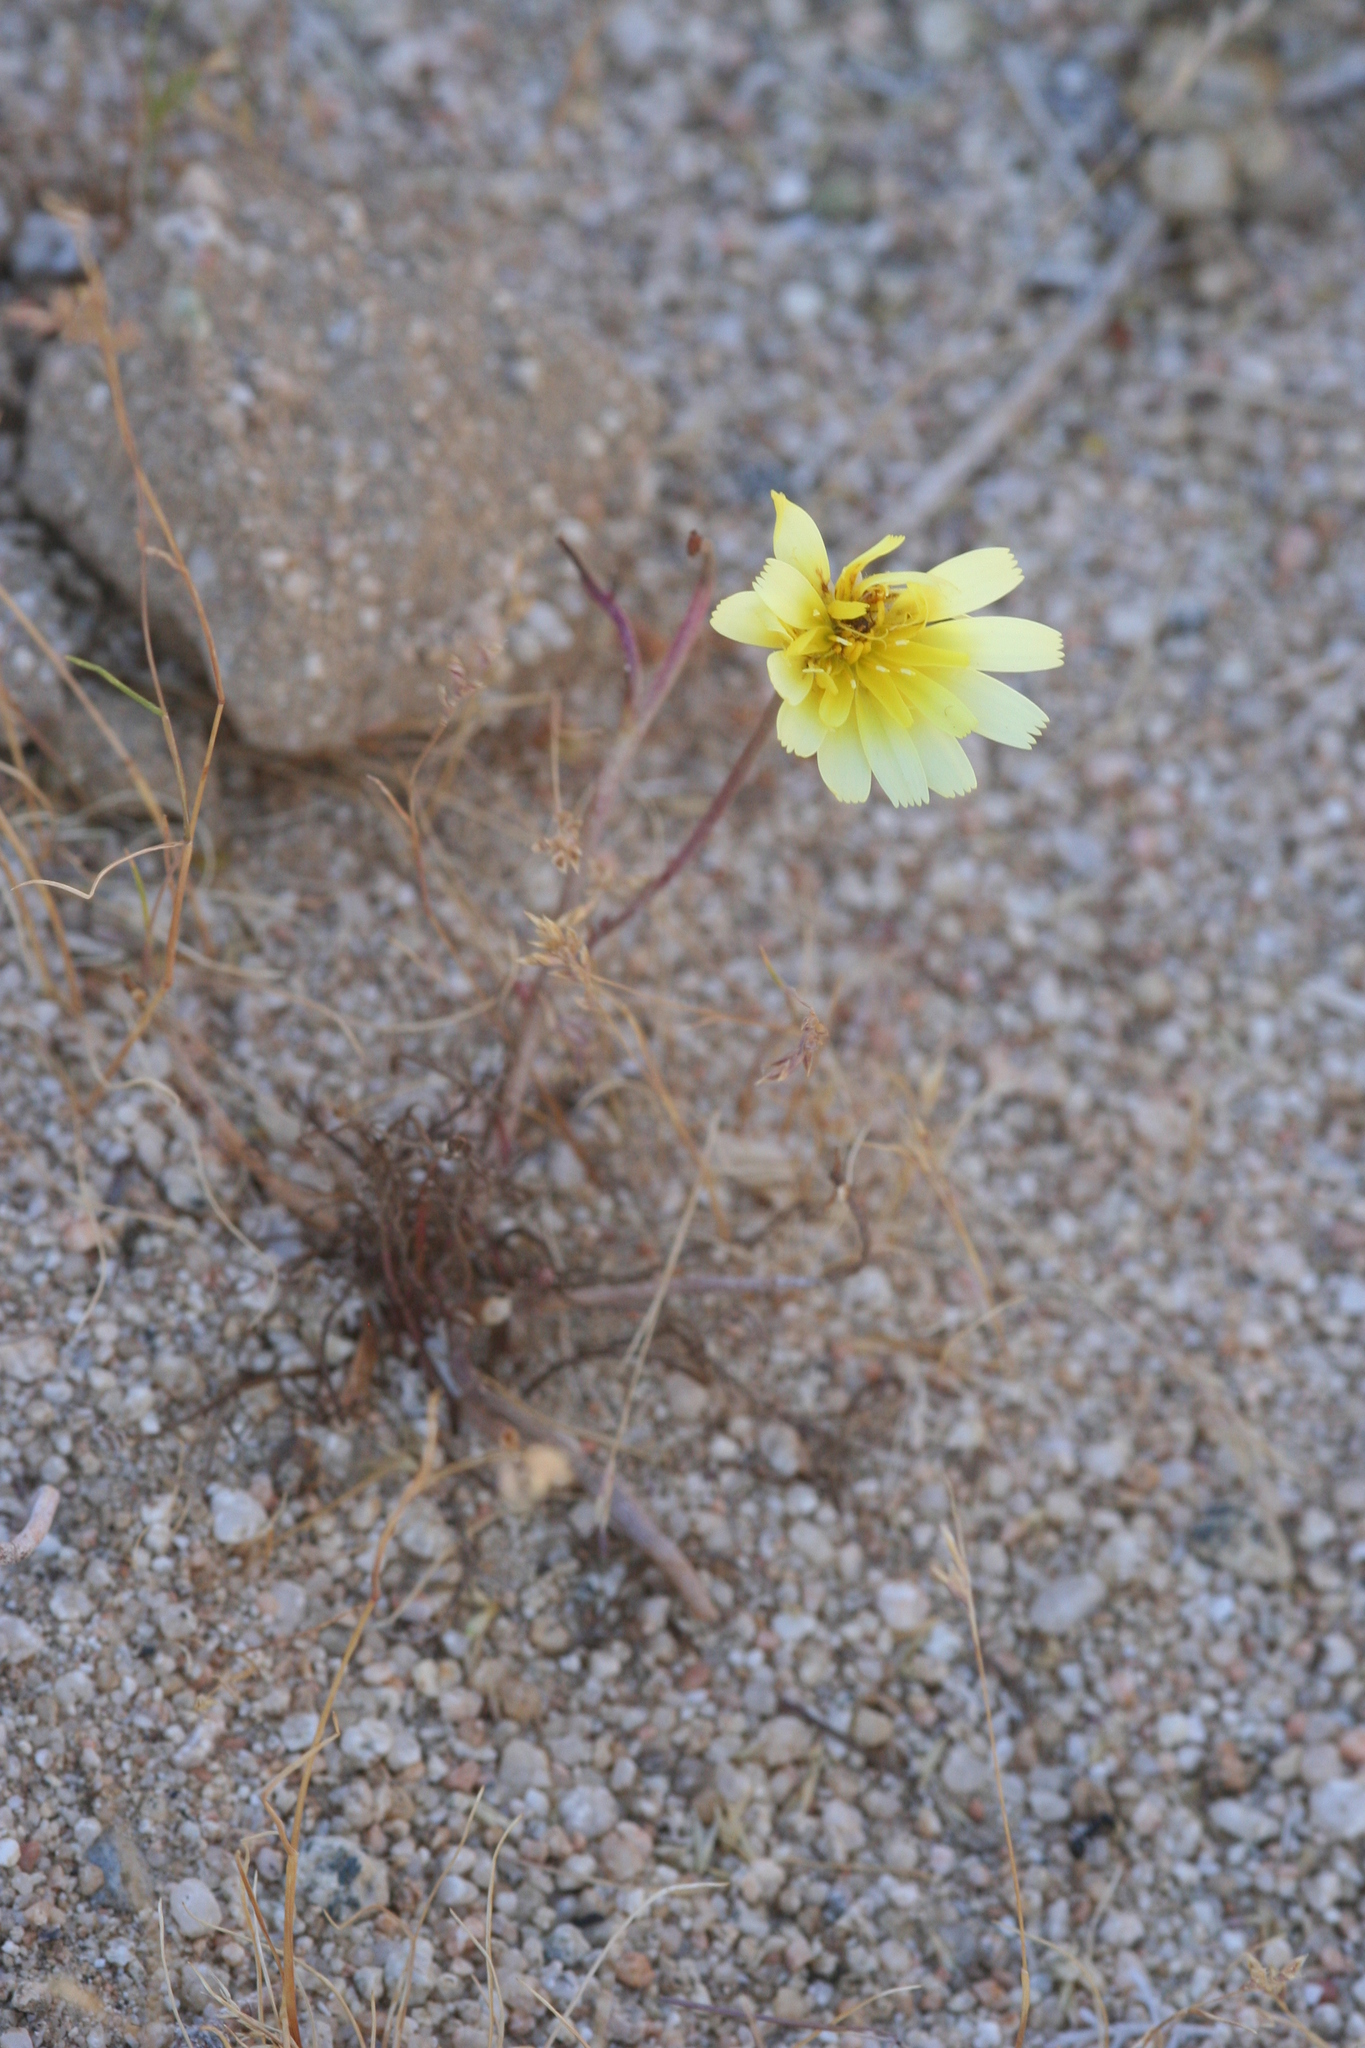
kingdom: Plantae
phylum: Tracheophyta
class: Magnoliopsida
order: Asterales
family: Asteraceae
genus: Malacothrix
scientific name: Malacothrix glabrata
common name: Smooth desert-dandelion
